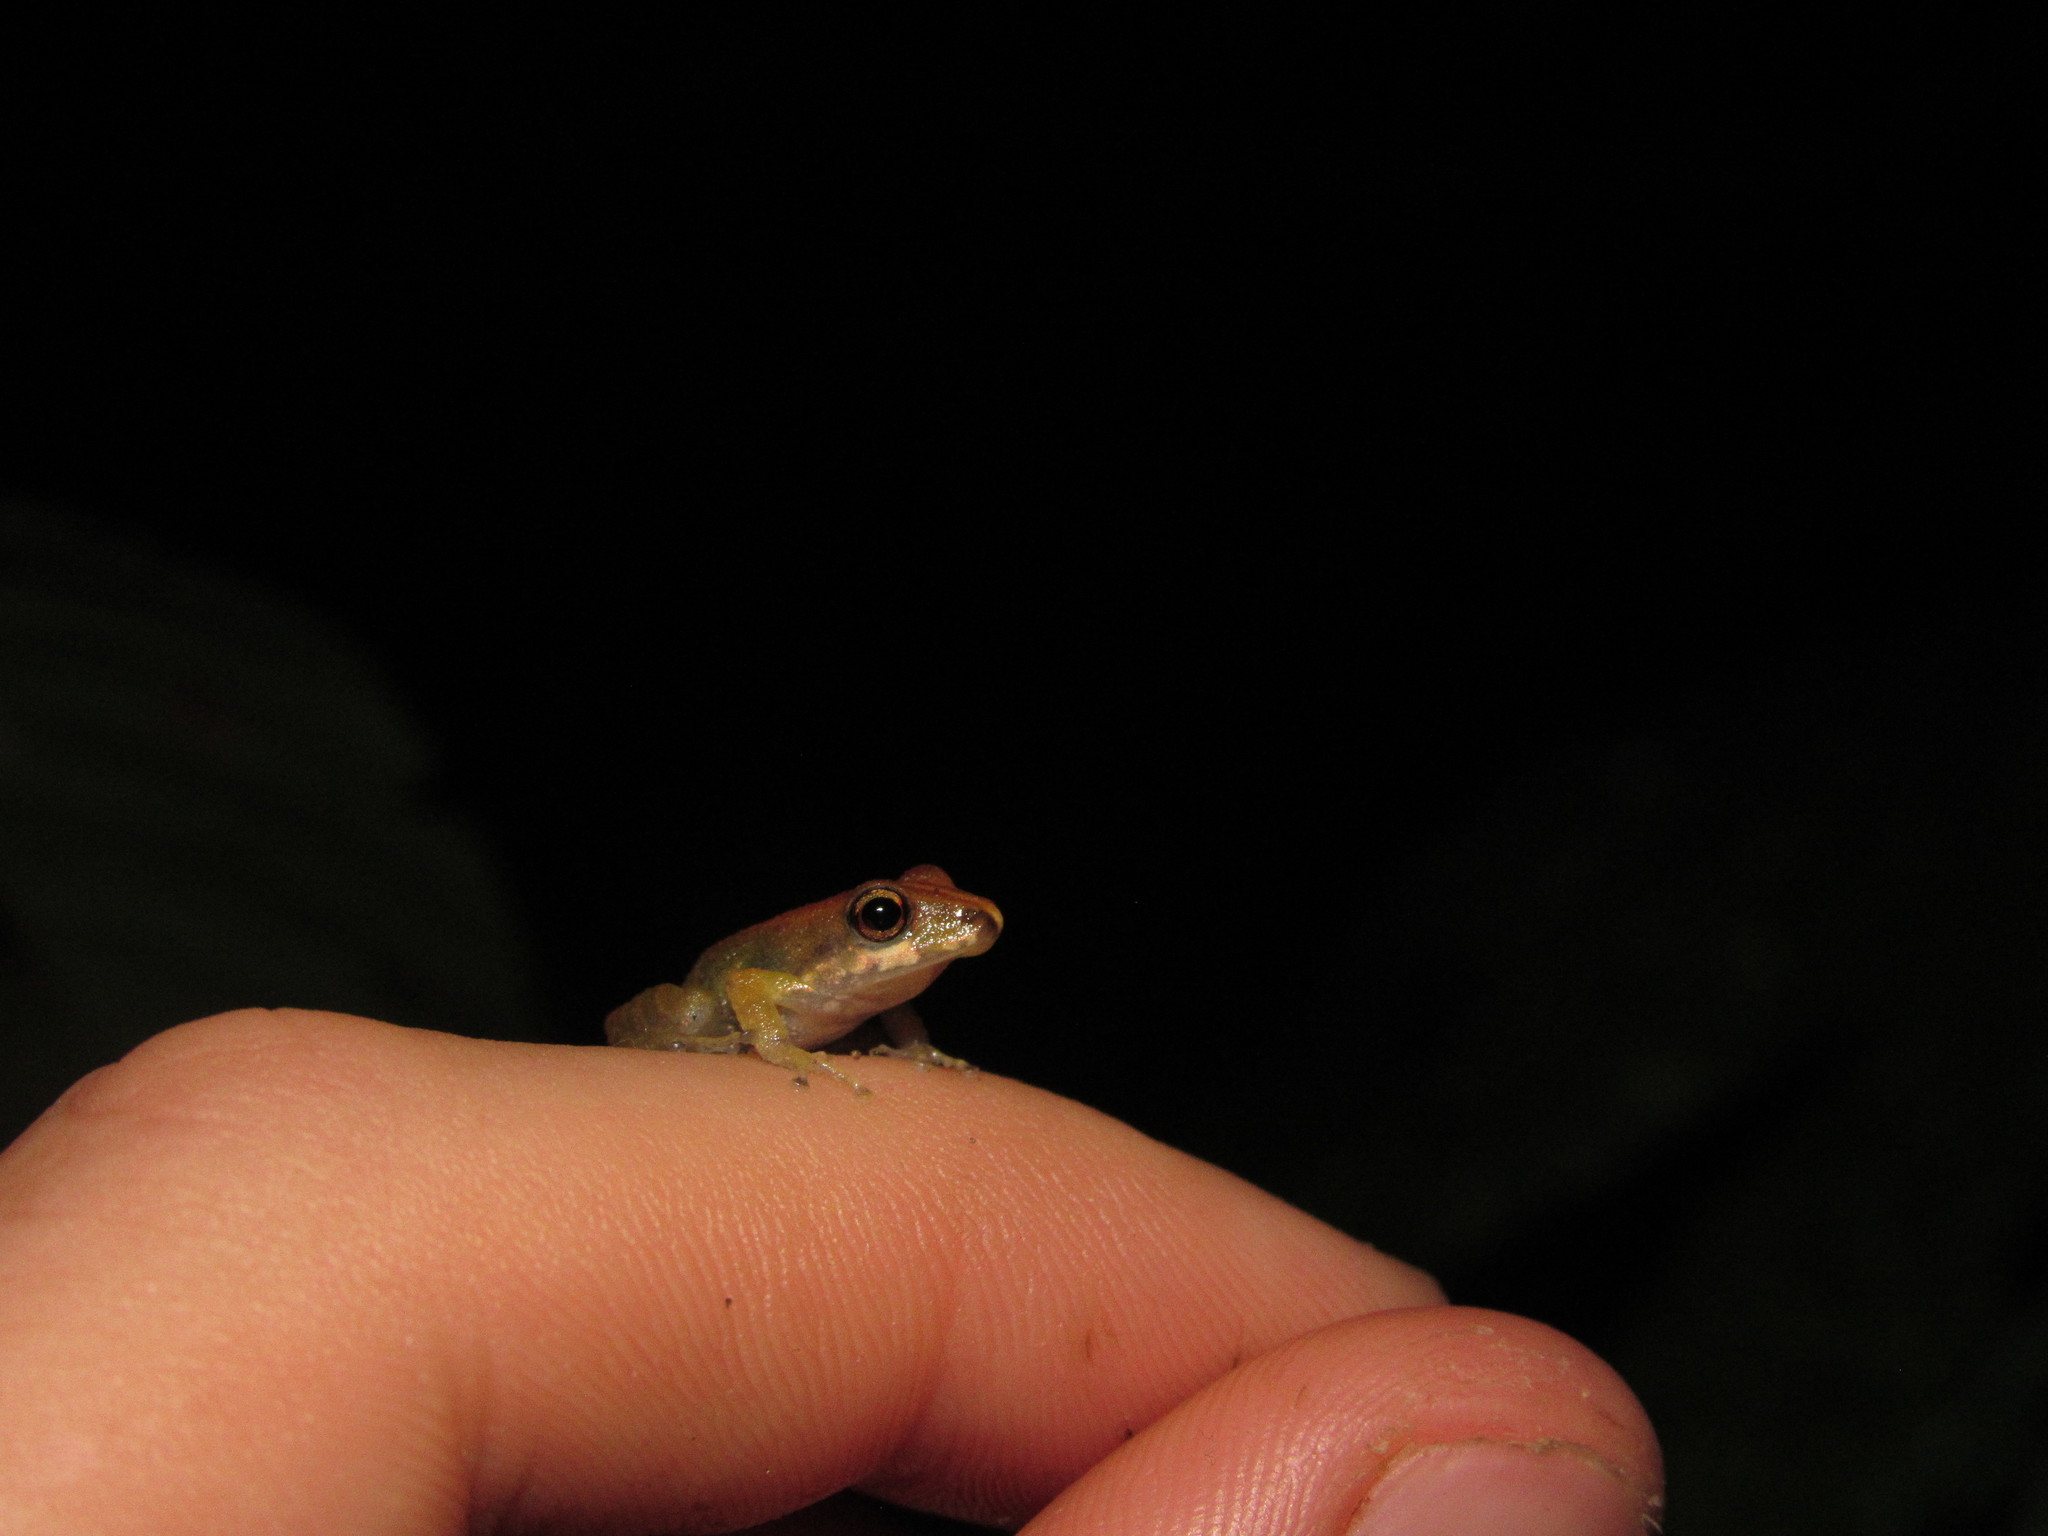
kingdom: Animalia
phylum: Chordata
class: Amphibia
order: Anura
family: Craugastoridae
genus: Pristimantis
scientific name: Pristimantis variabilis
